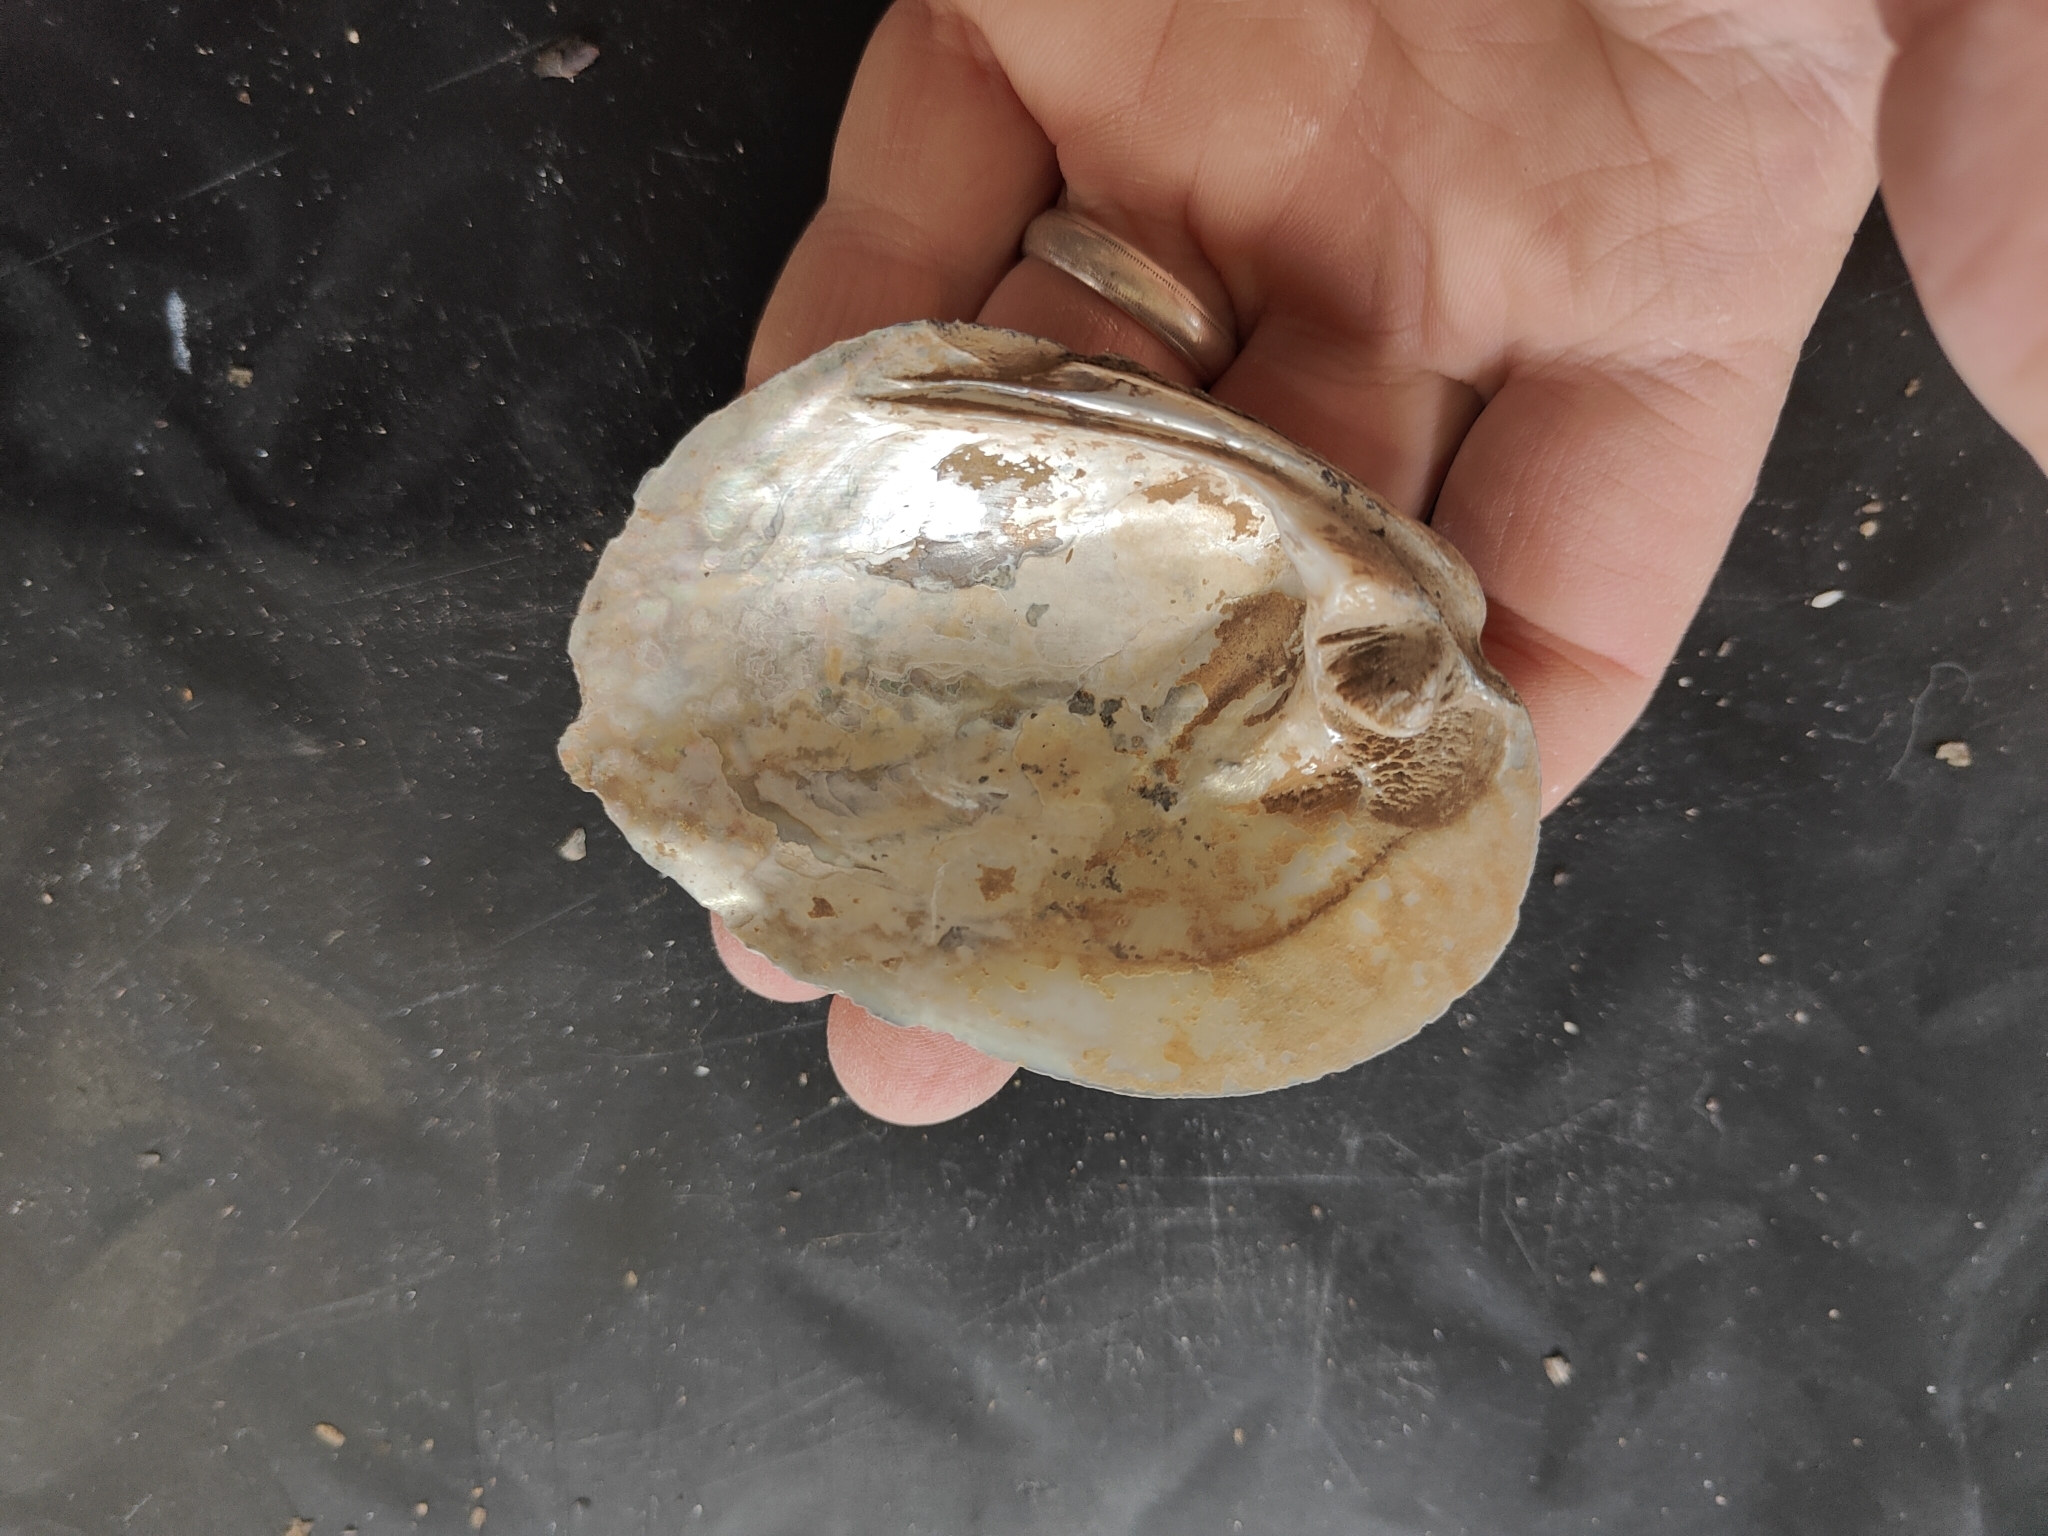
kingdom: Animalia
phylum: Mollusca
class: Bivalvia
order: Unionida
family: Unionidae
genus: Amblema
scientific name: Amblema plicata
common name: Threeridge
